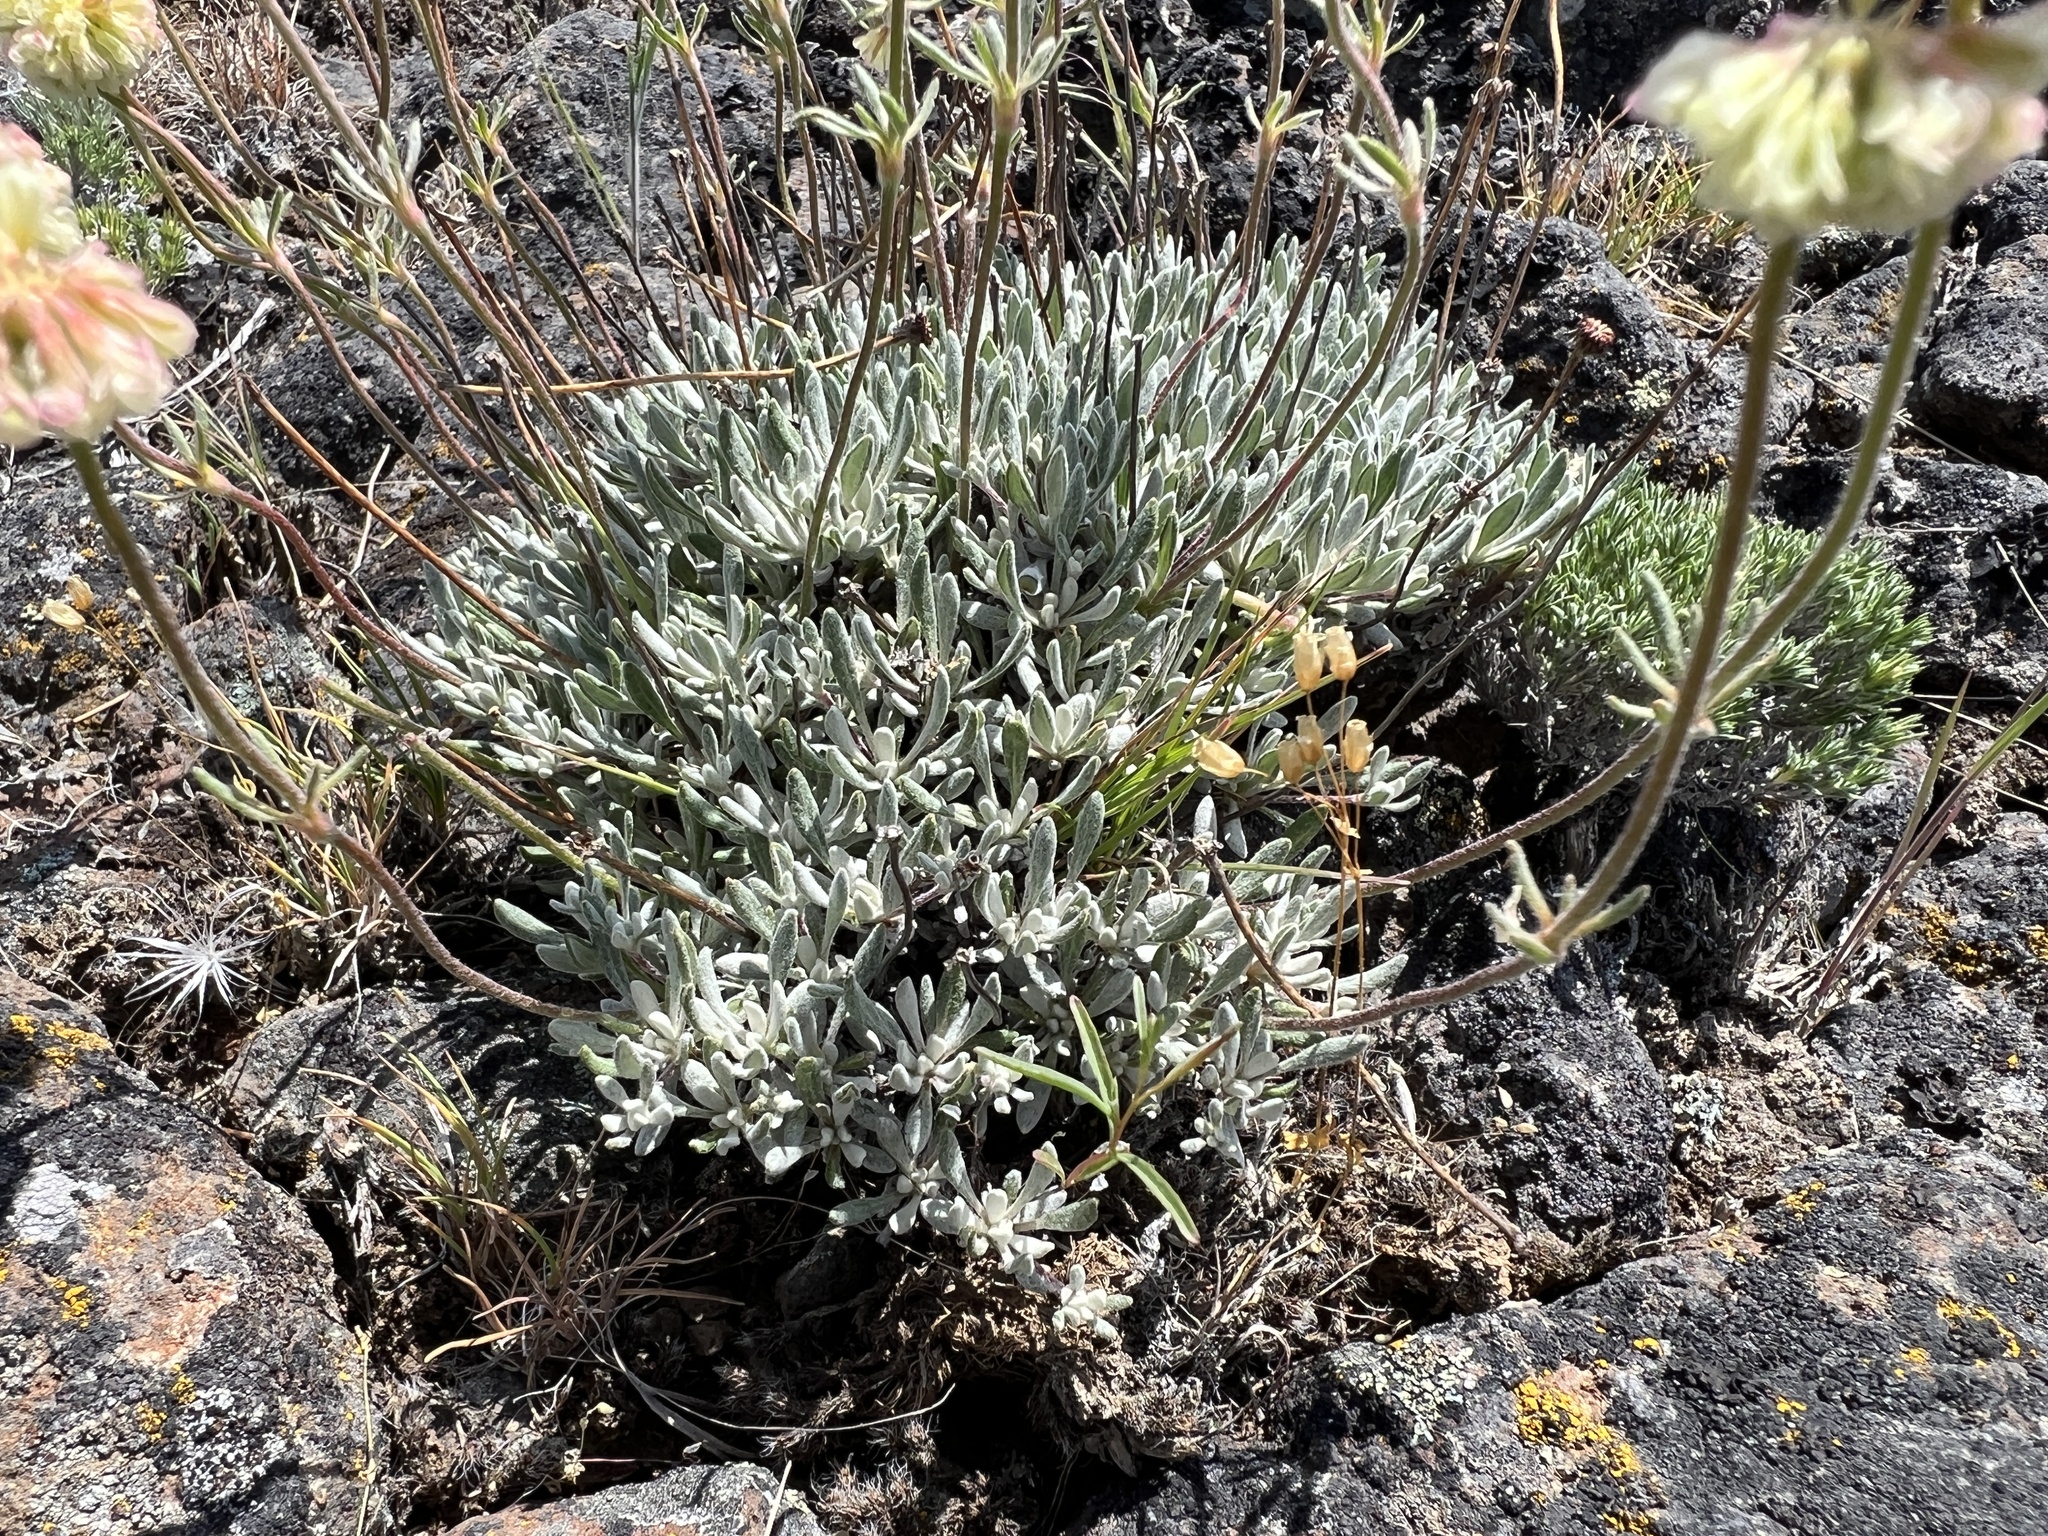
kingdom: Plantae
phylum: Tracheophyta
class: Magnoliopsida
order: Caryophyllales
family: Polygonaceae
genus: Eriogonum
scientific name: Eriogonum douglasii
